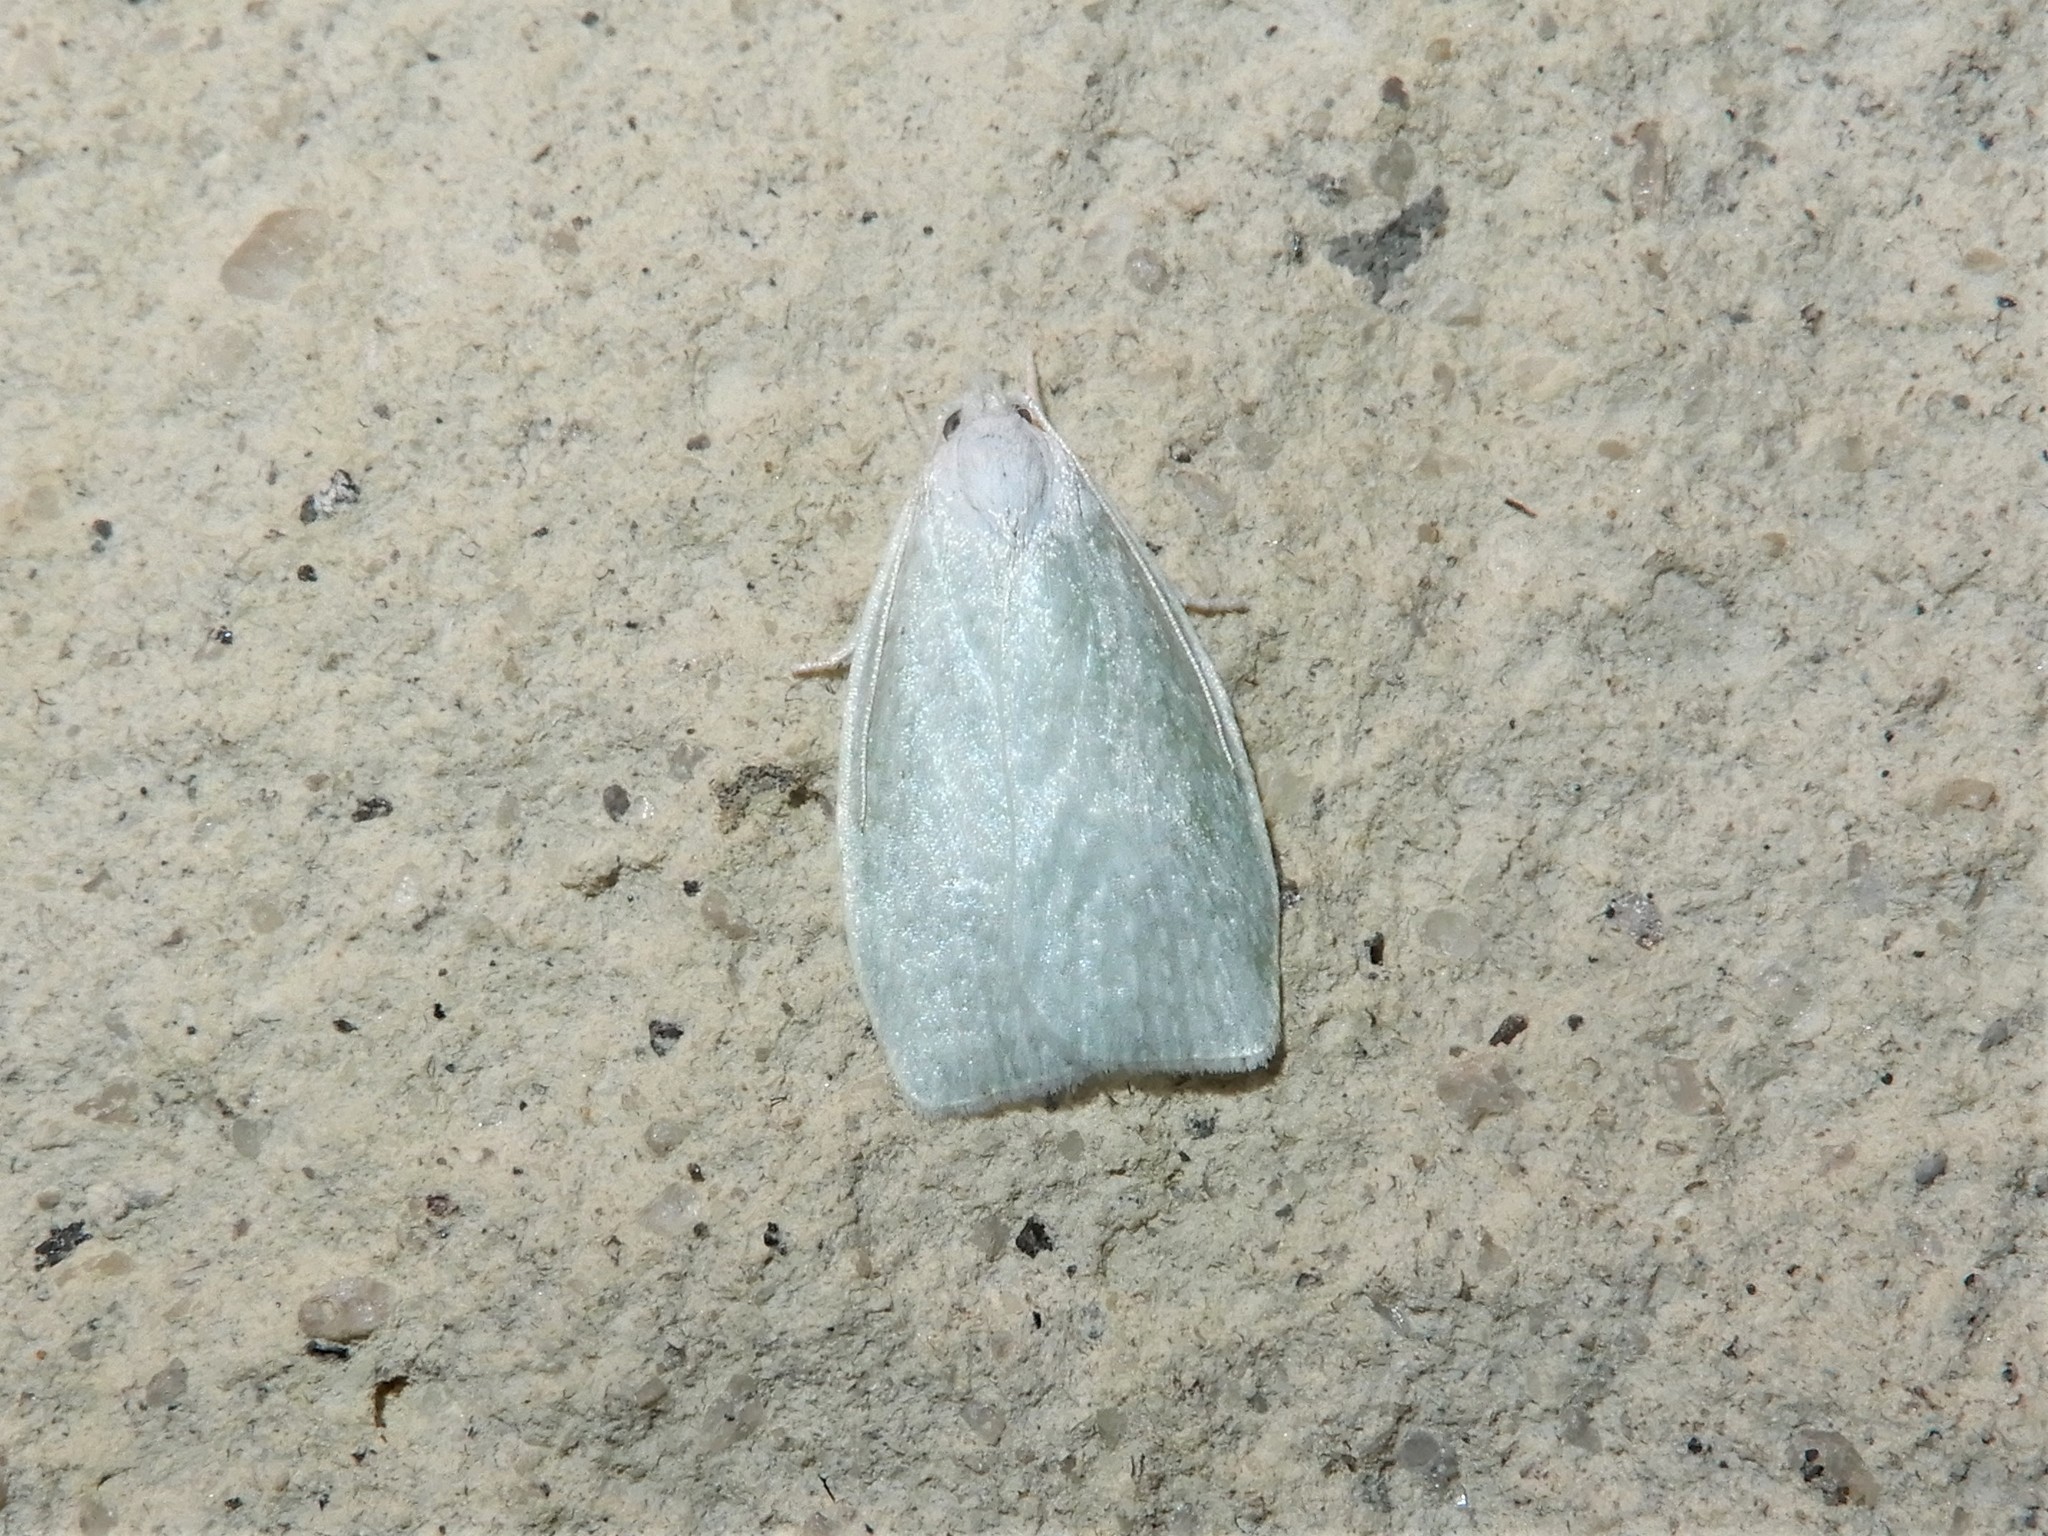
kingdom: Animalia
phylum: Arthropoda
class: Insecta
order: Lepidoptera
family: Oecophoridae
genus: Nymphostola
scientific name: Nymphostola galactina
